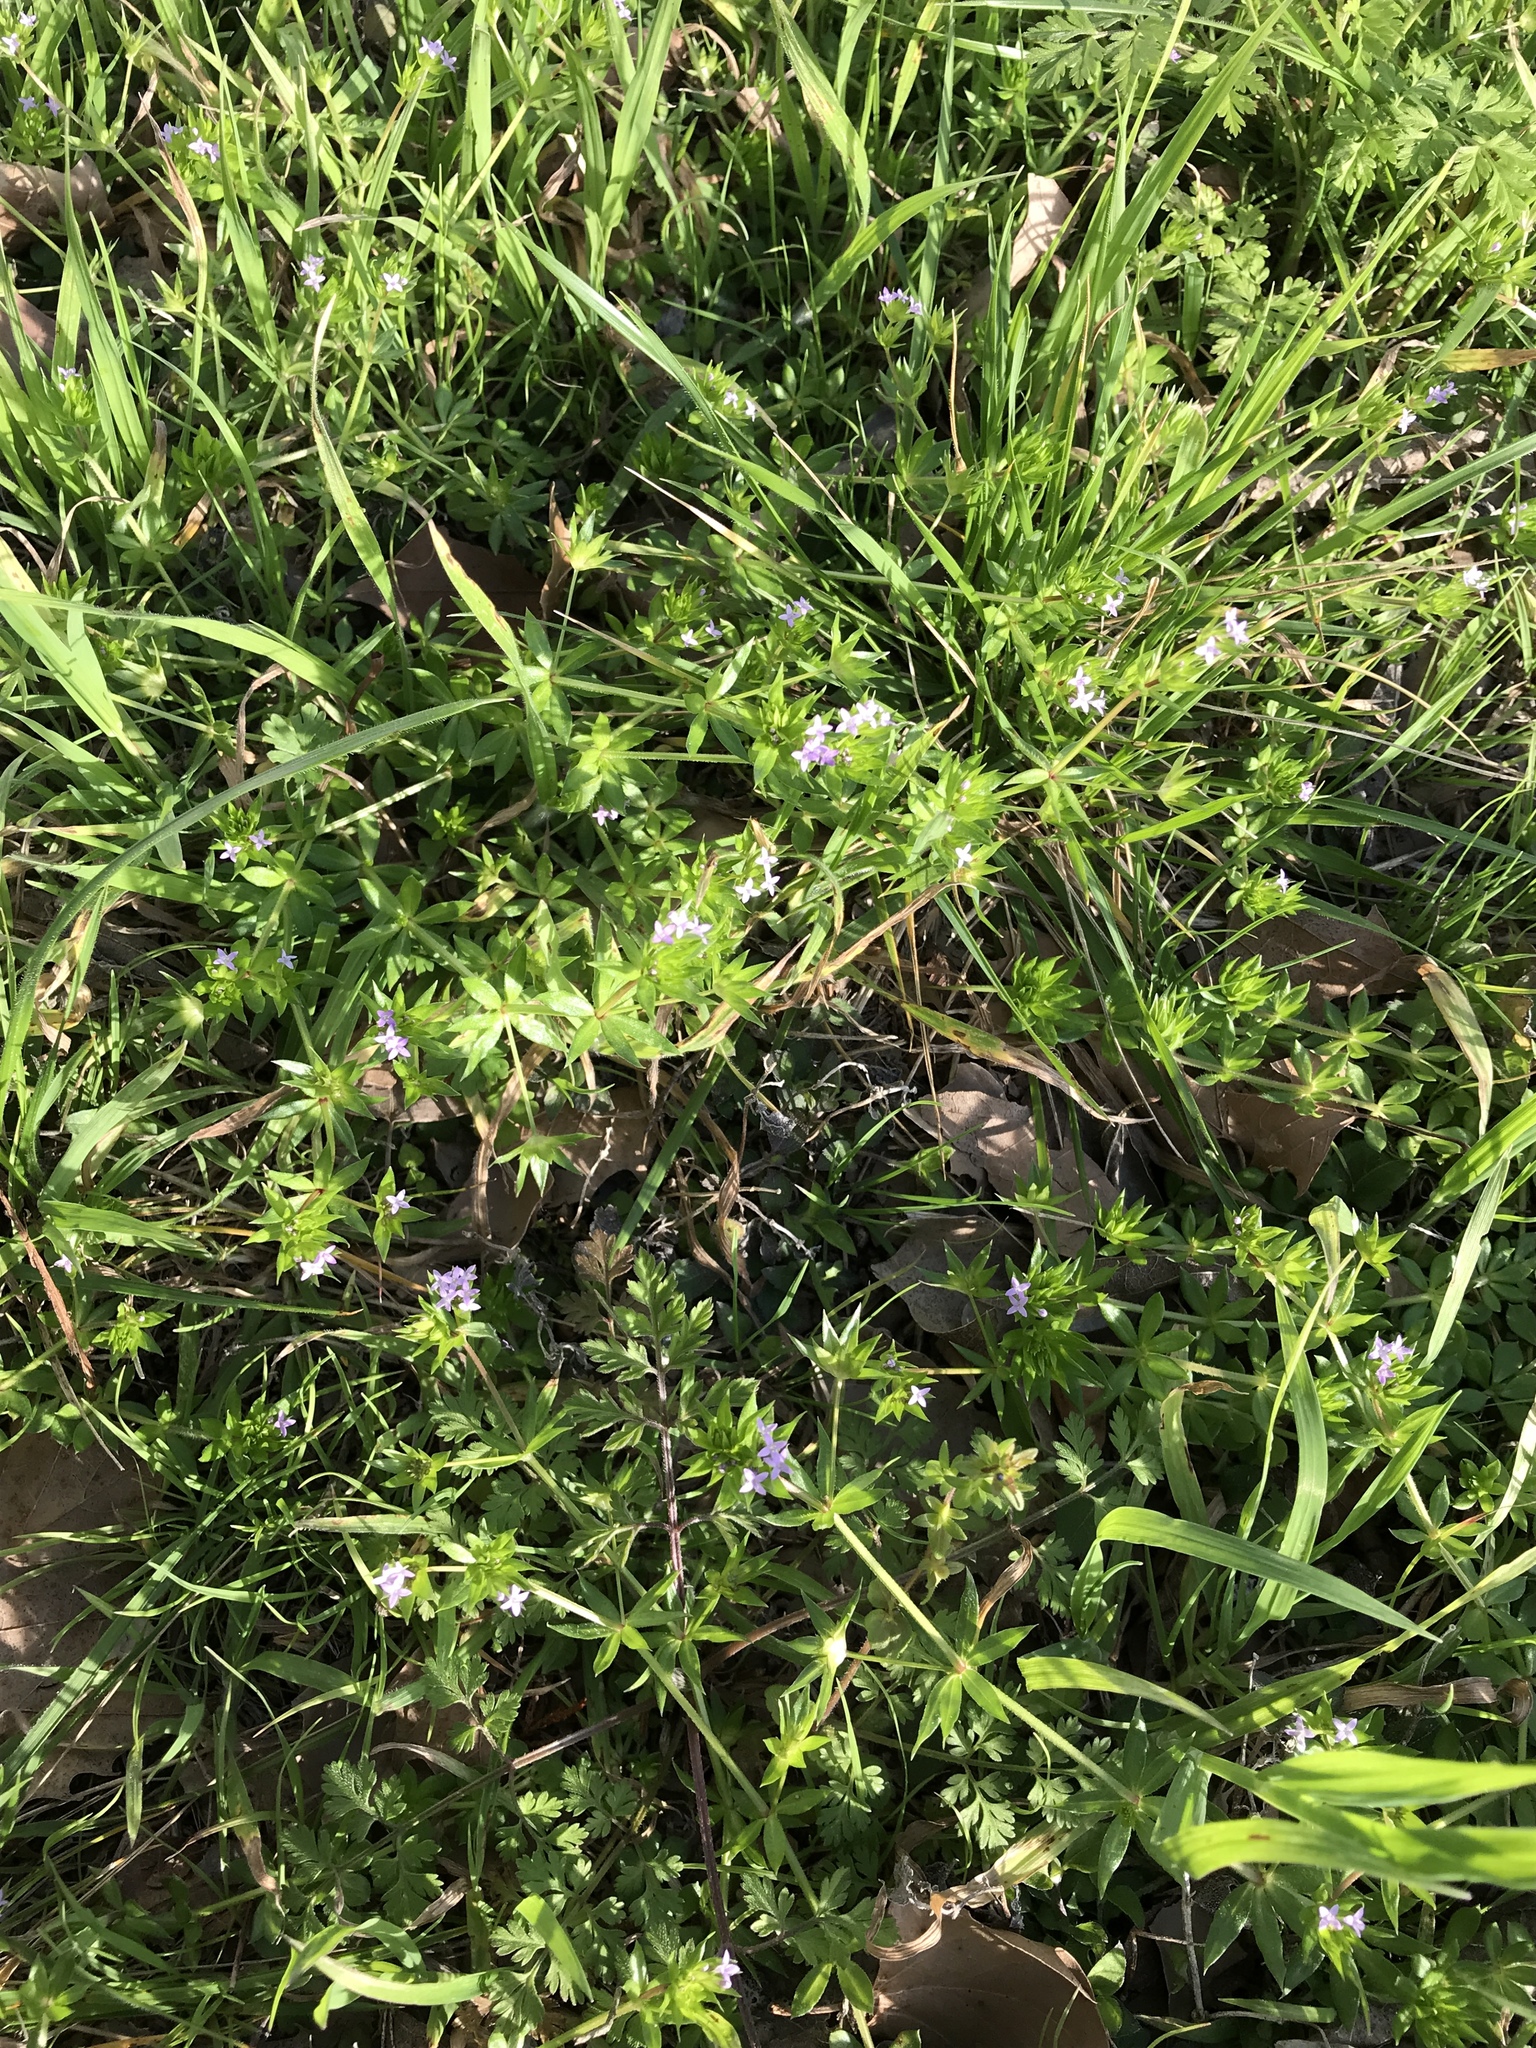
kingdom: Plantae
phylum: Tracheophyta
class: Magnoliopsida
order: Gentianales
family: Rubiaceae
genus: Sherardia
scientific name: Sherardia arvensis
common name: Field madder
